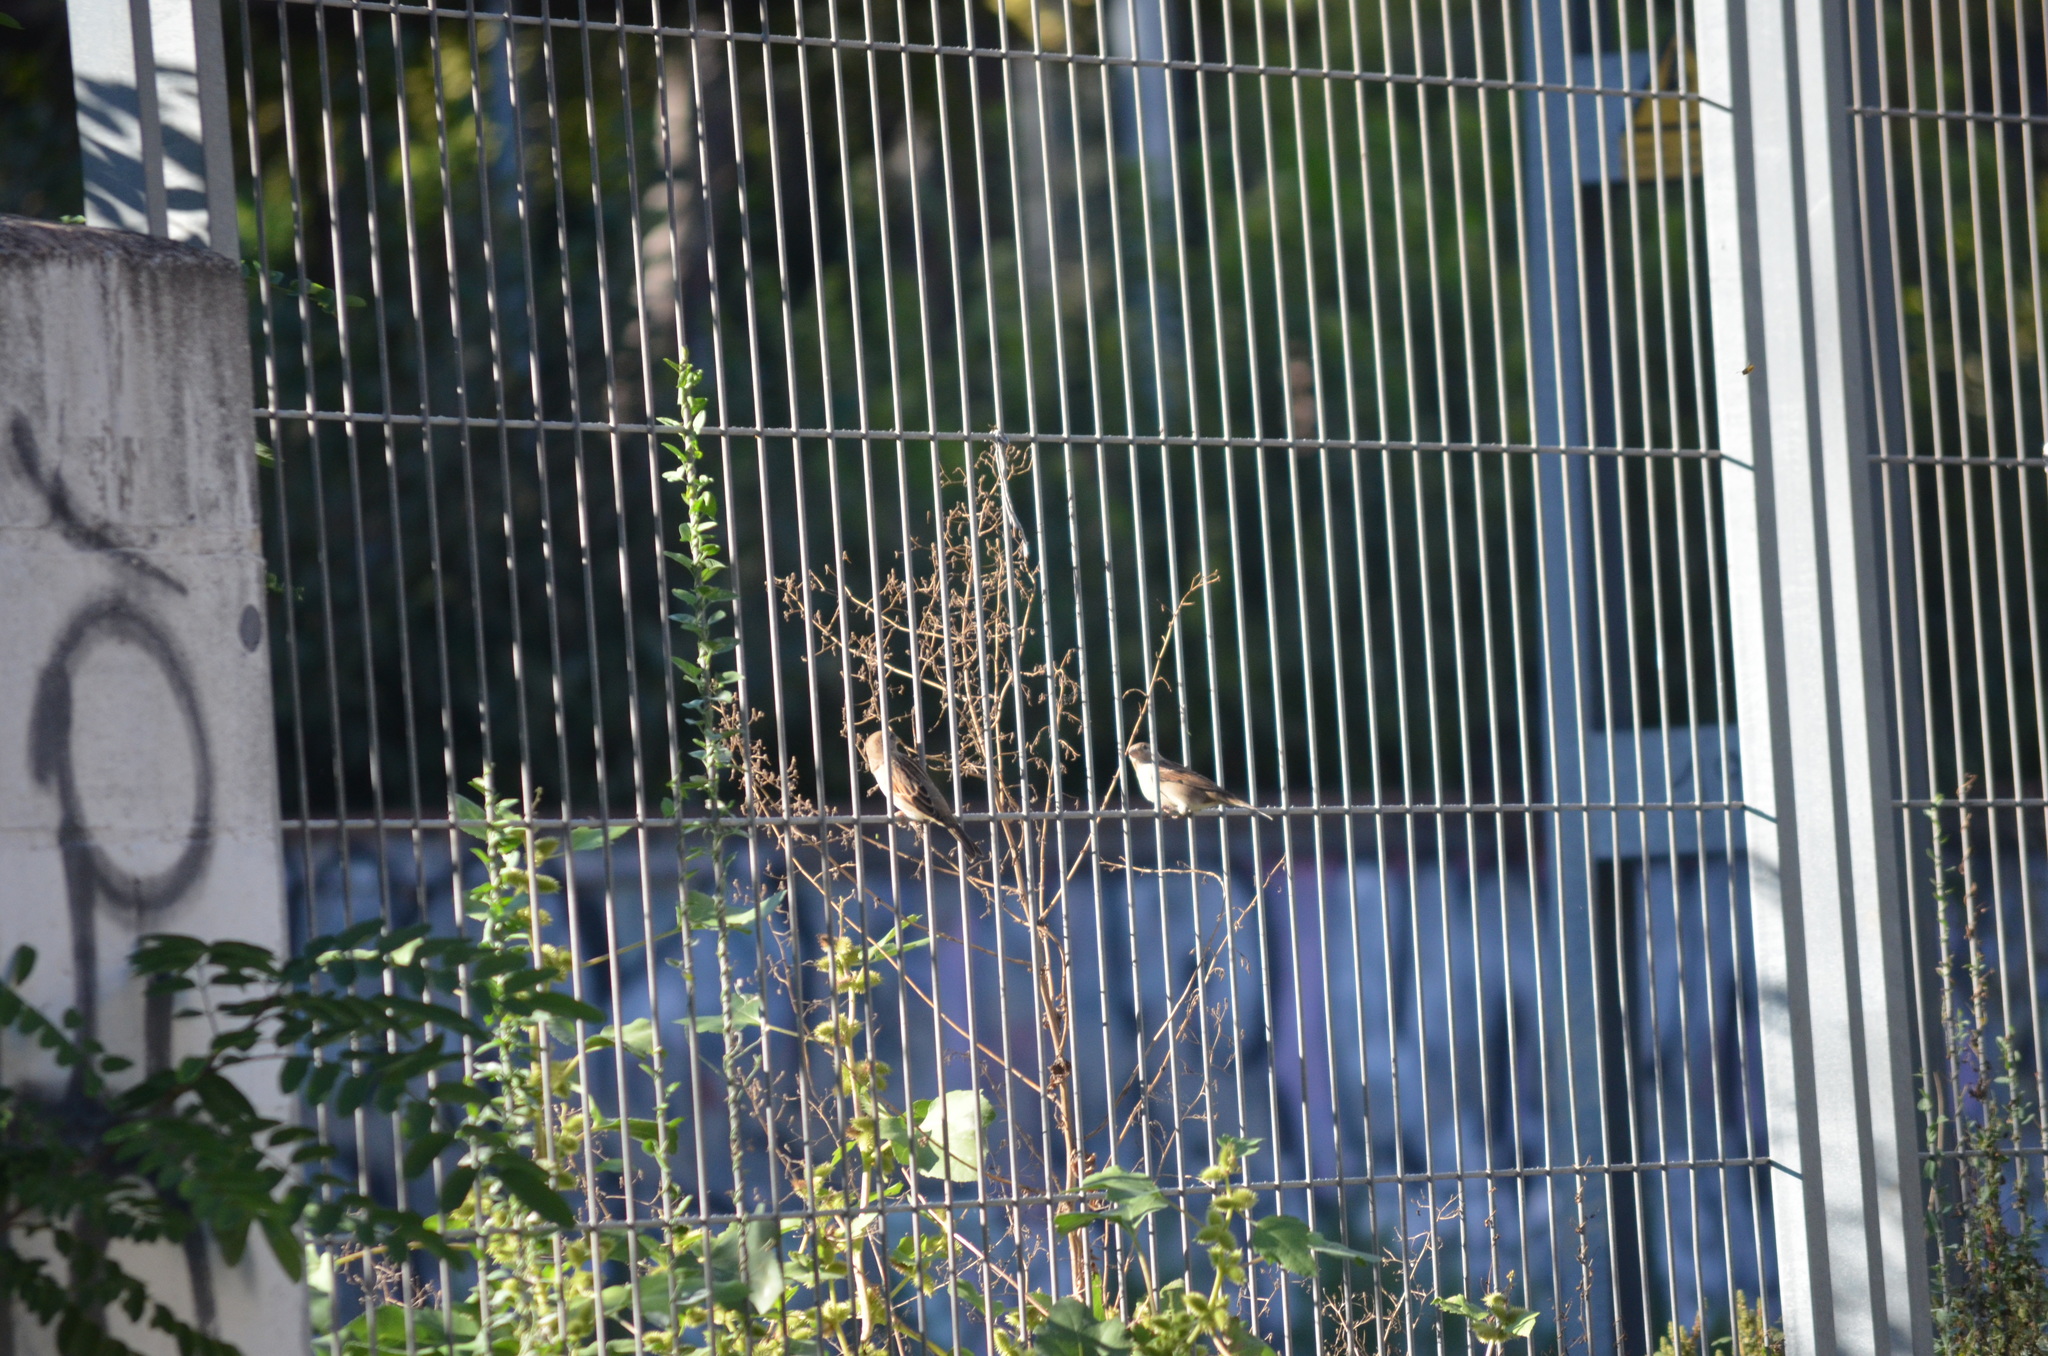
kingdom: Animalia
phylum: Chordata
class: Aves
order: Passeriformes
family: Passeridae
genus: Passer
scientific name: Passer domesticus
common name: House sparrow
